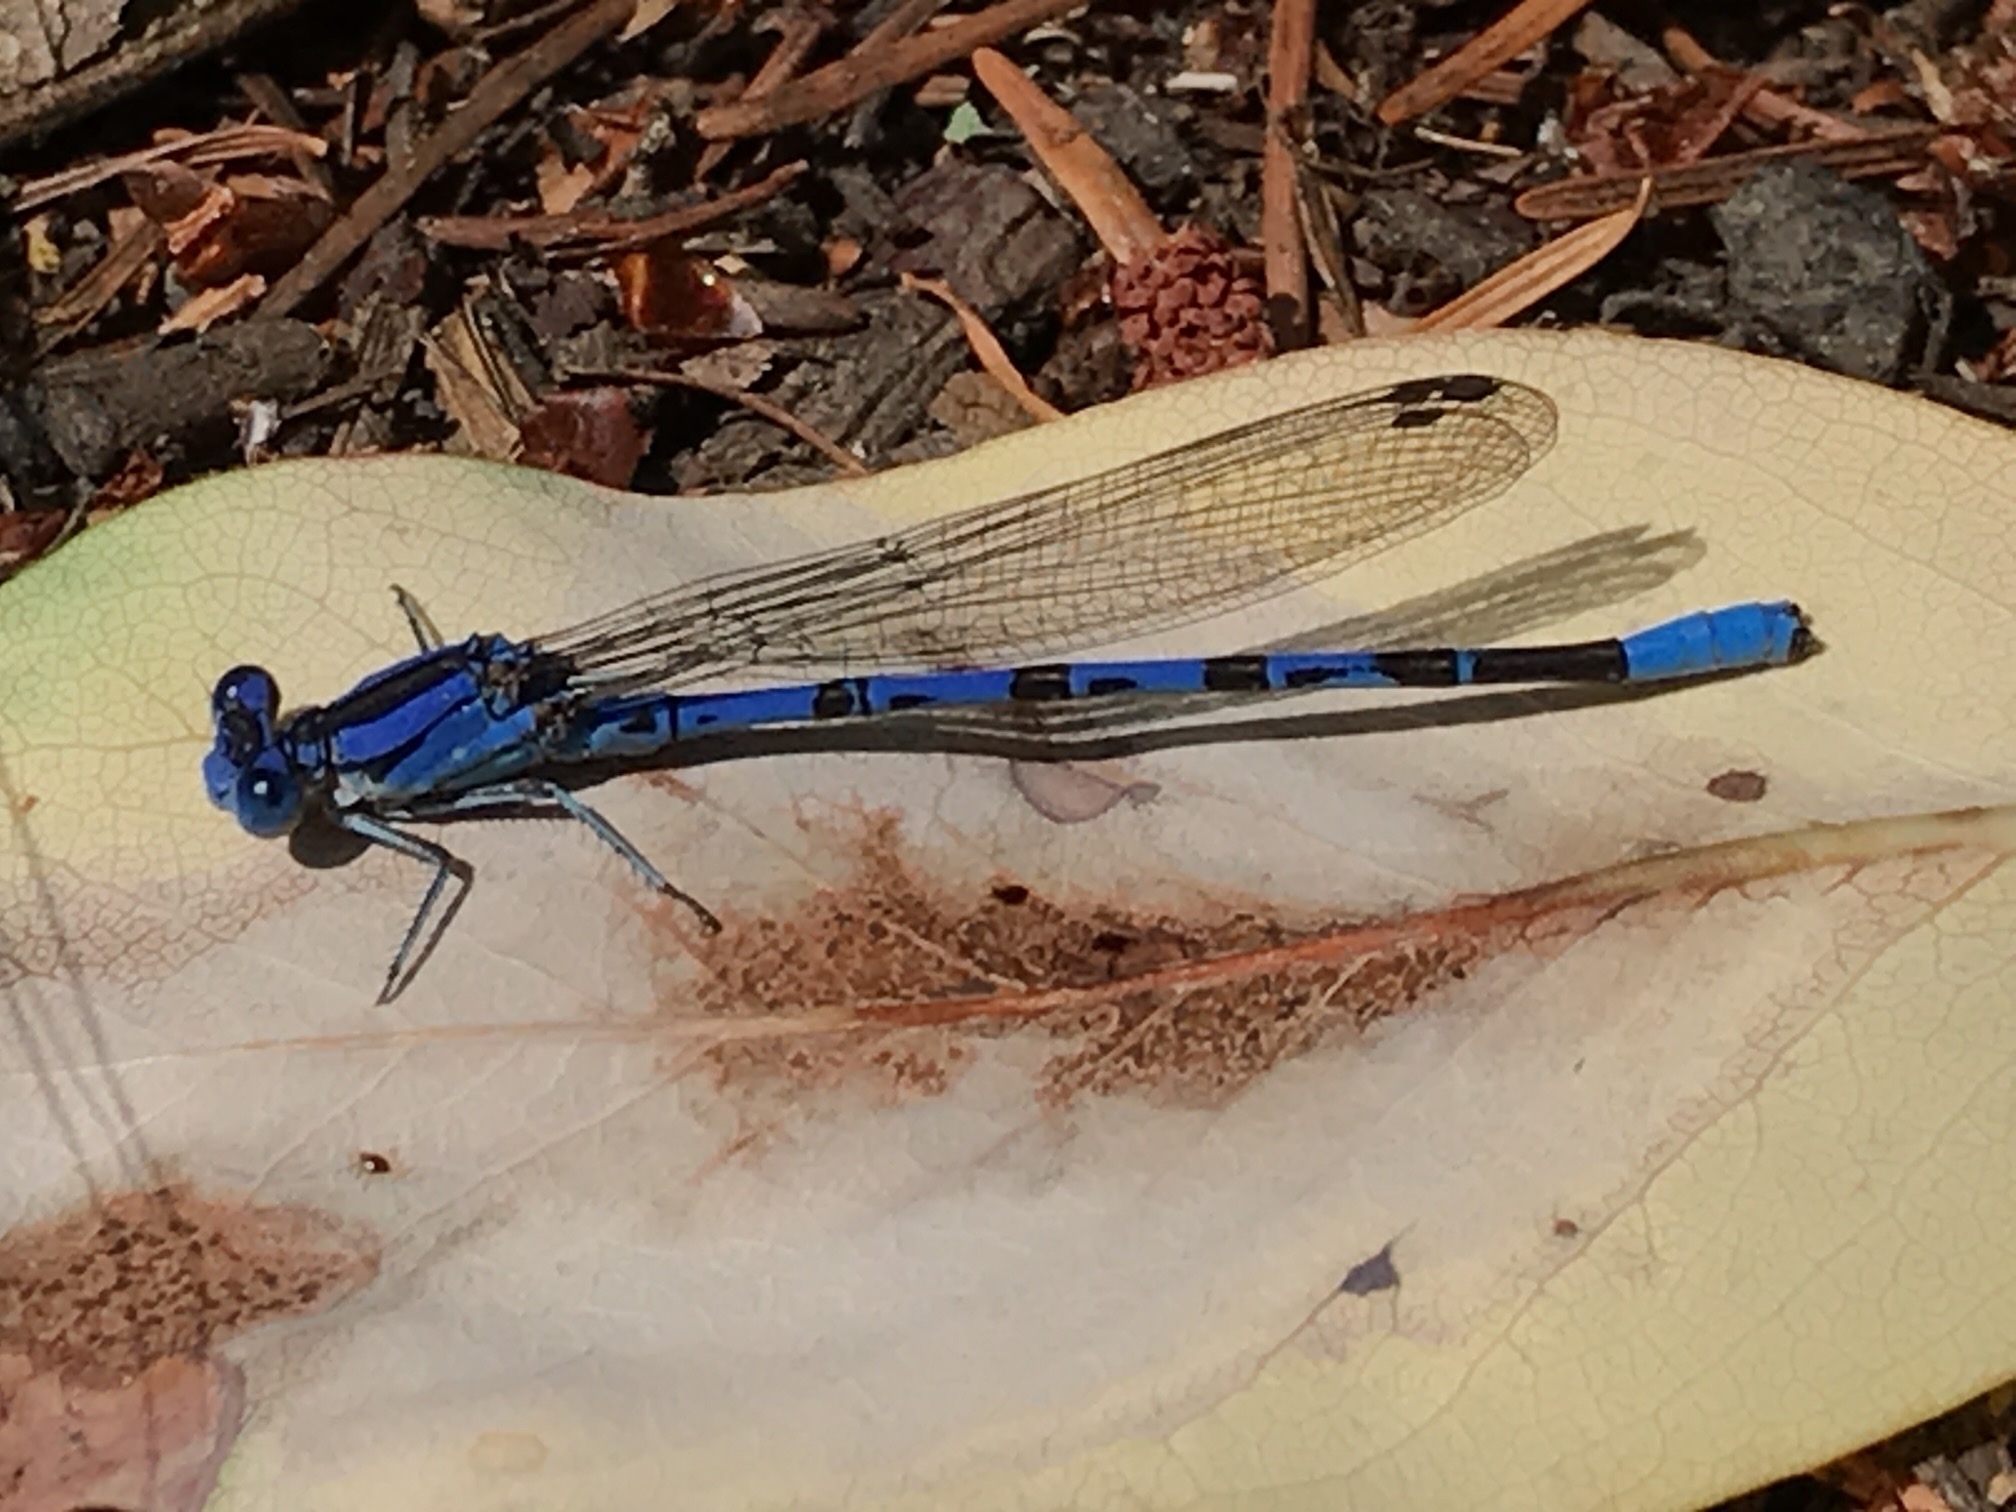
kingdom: Animalia
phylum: Arthropoda
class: Insecta
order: Odonata
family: Coenagrionidae
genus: Argia
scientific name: Argia vivida
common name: Vivid dancer
